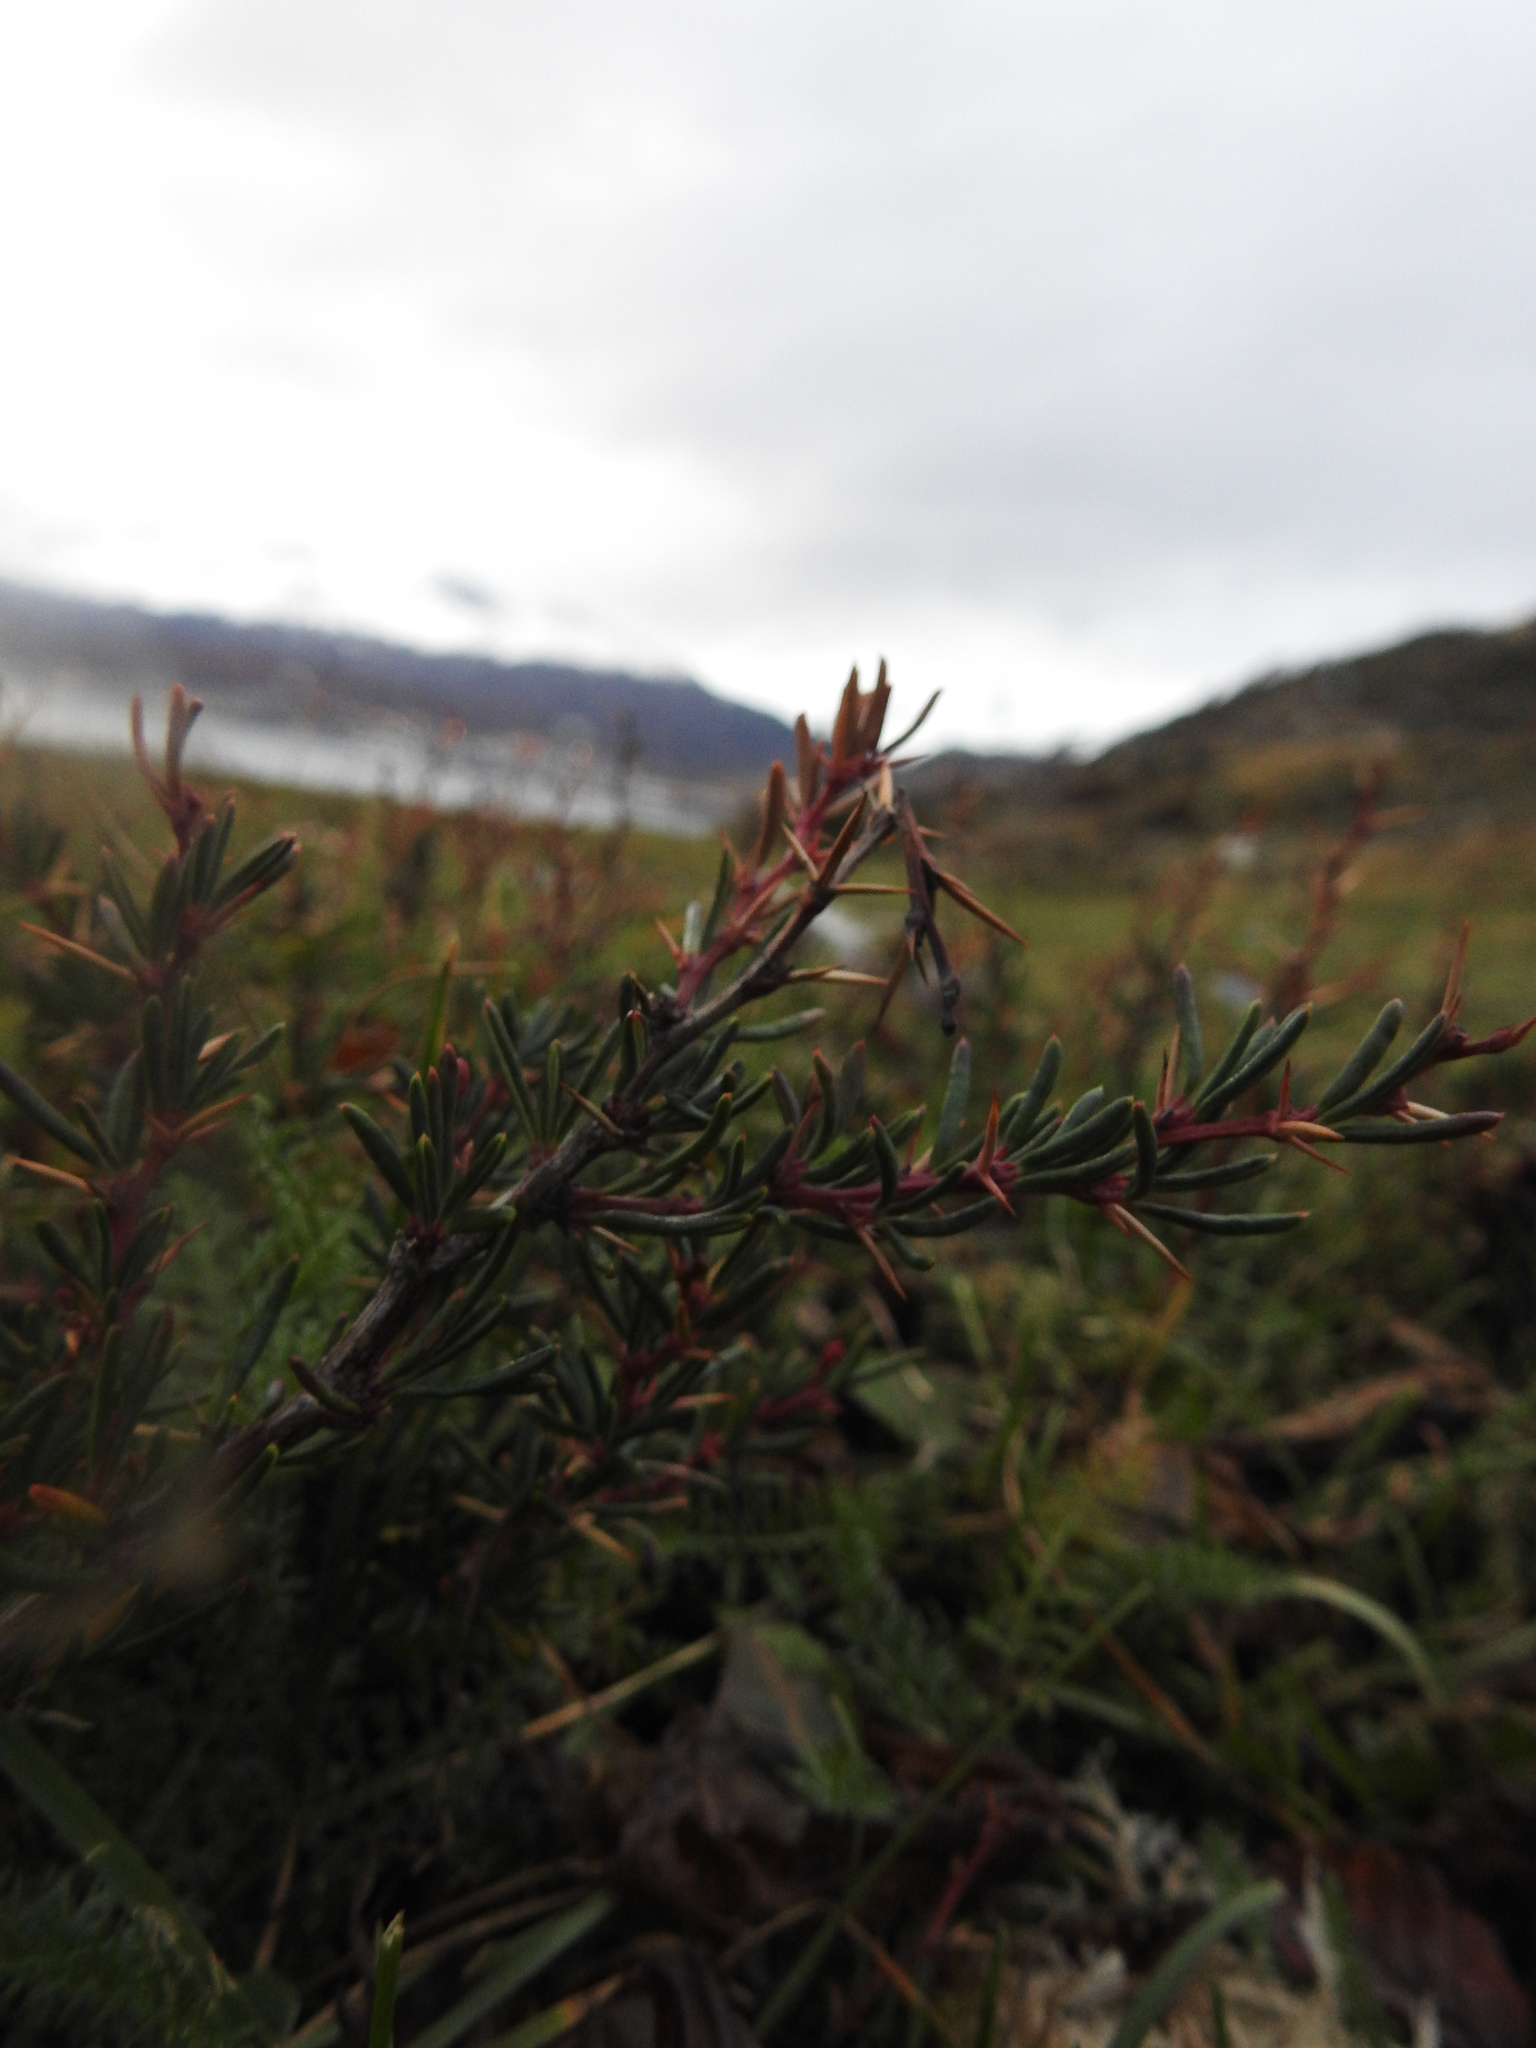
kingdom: Plantae
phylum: Tracheophyta
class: Magnoliopsida
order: Ranunculales
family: Berberidaceae
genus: Berberis
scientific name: Berberis empetrifolia
